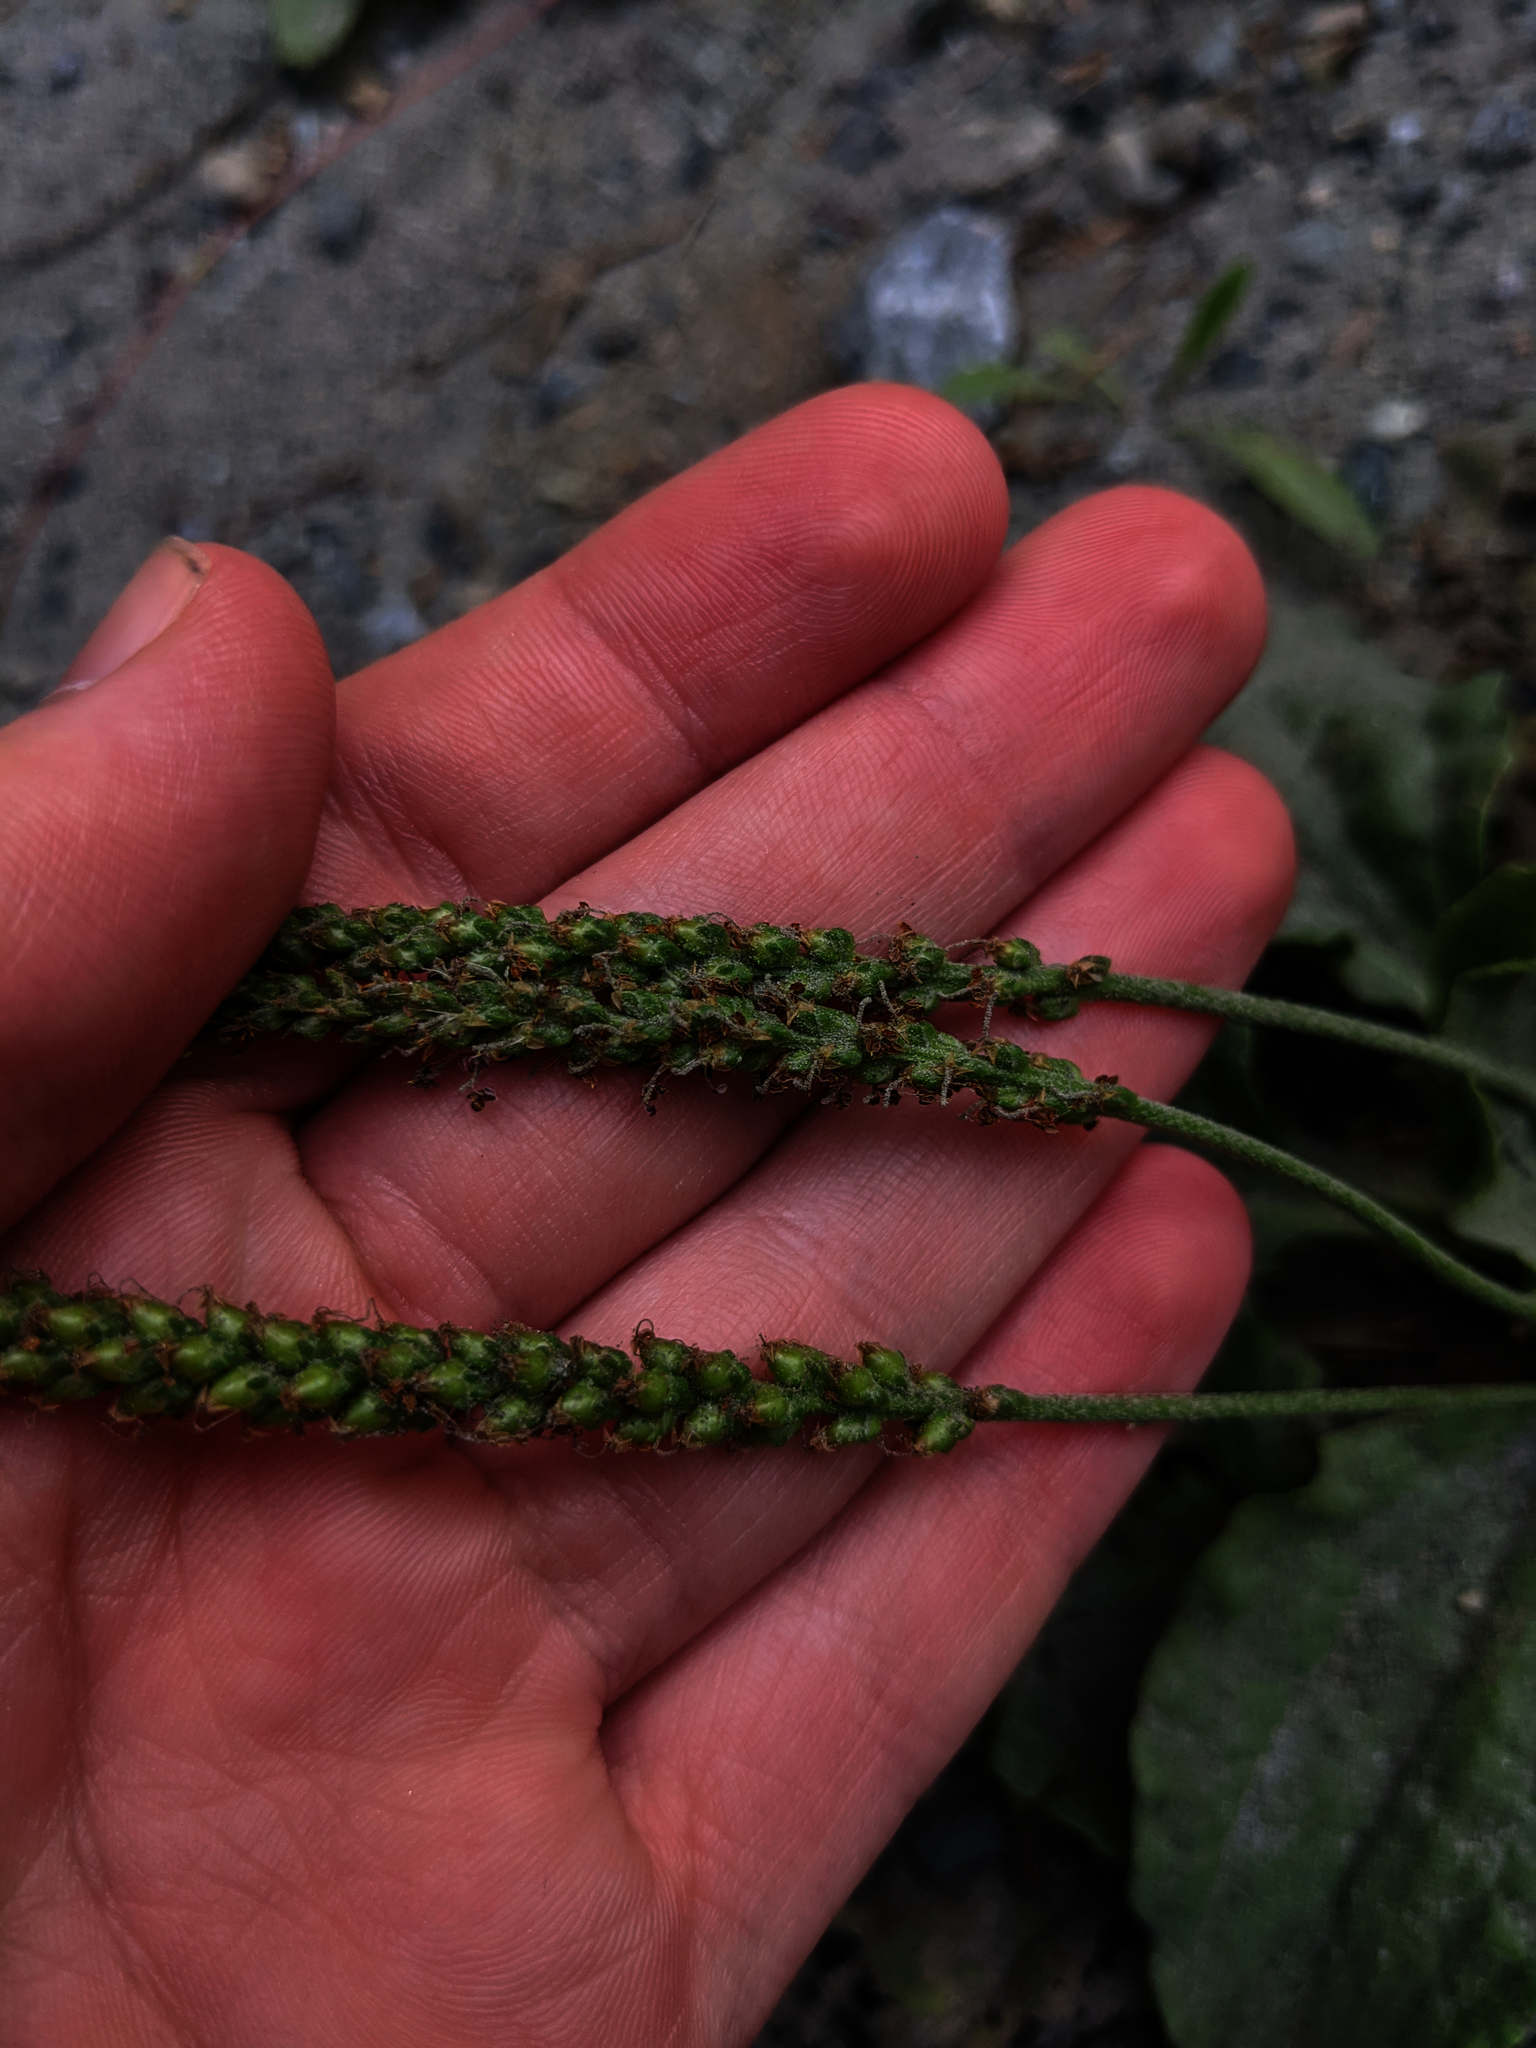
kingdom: Plantae
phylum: Tracheophyta
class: Magnoliopsida
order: Lamiales
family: Plantaginaceae
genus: Plantago
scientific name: Plantago major
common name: Common plantain
